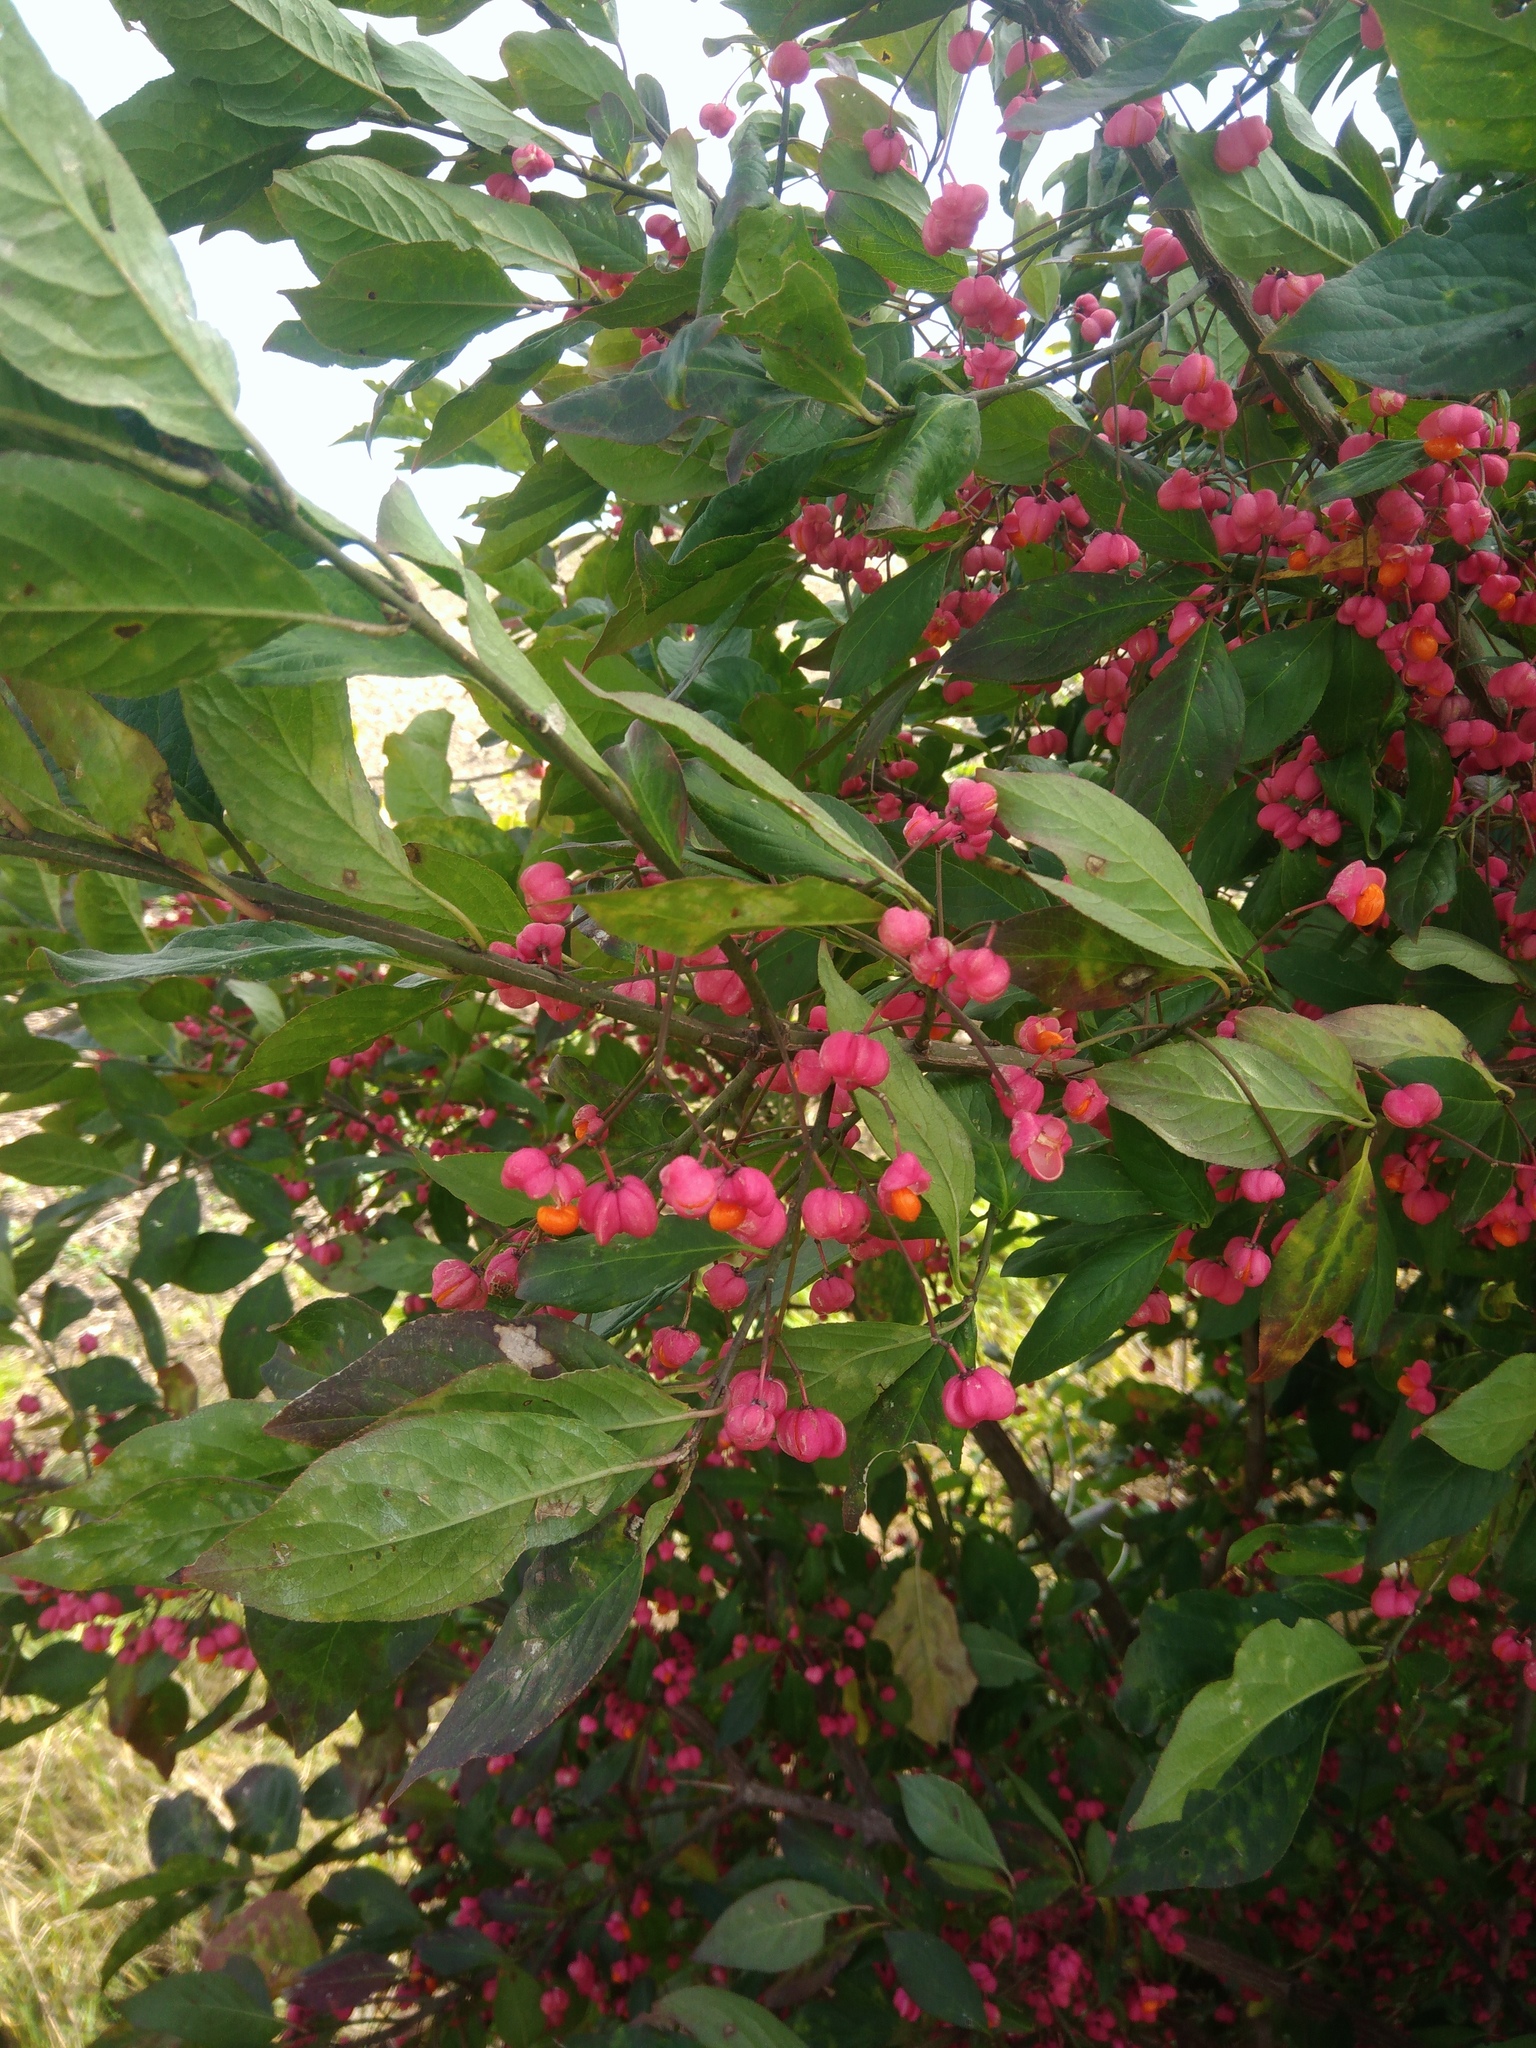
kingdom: Plantae
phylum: Tracheophyta
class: Magnoliopsida
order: Celastrales
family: Celastraceae
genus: Euonymus
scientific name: Euonymus europaeus
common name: Spindle
